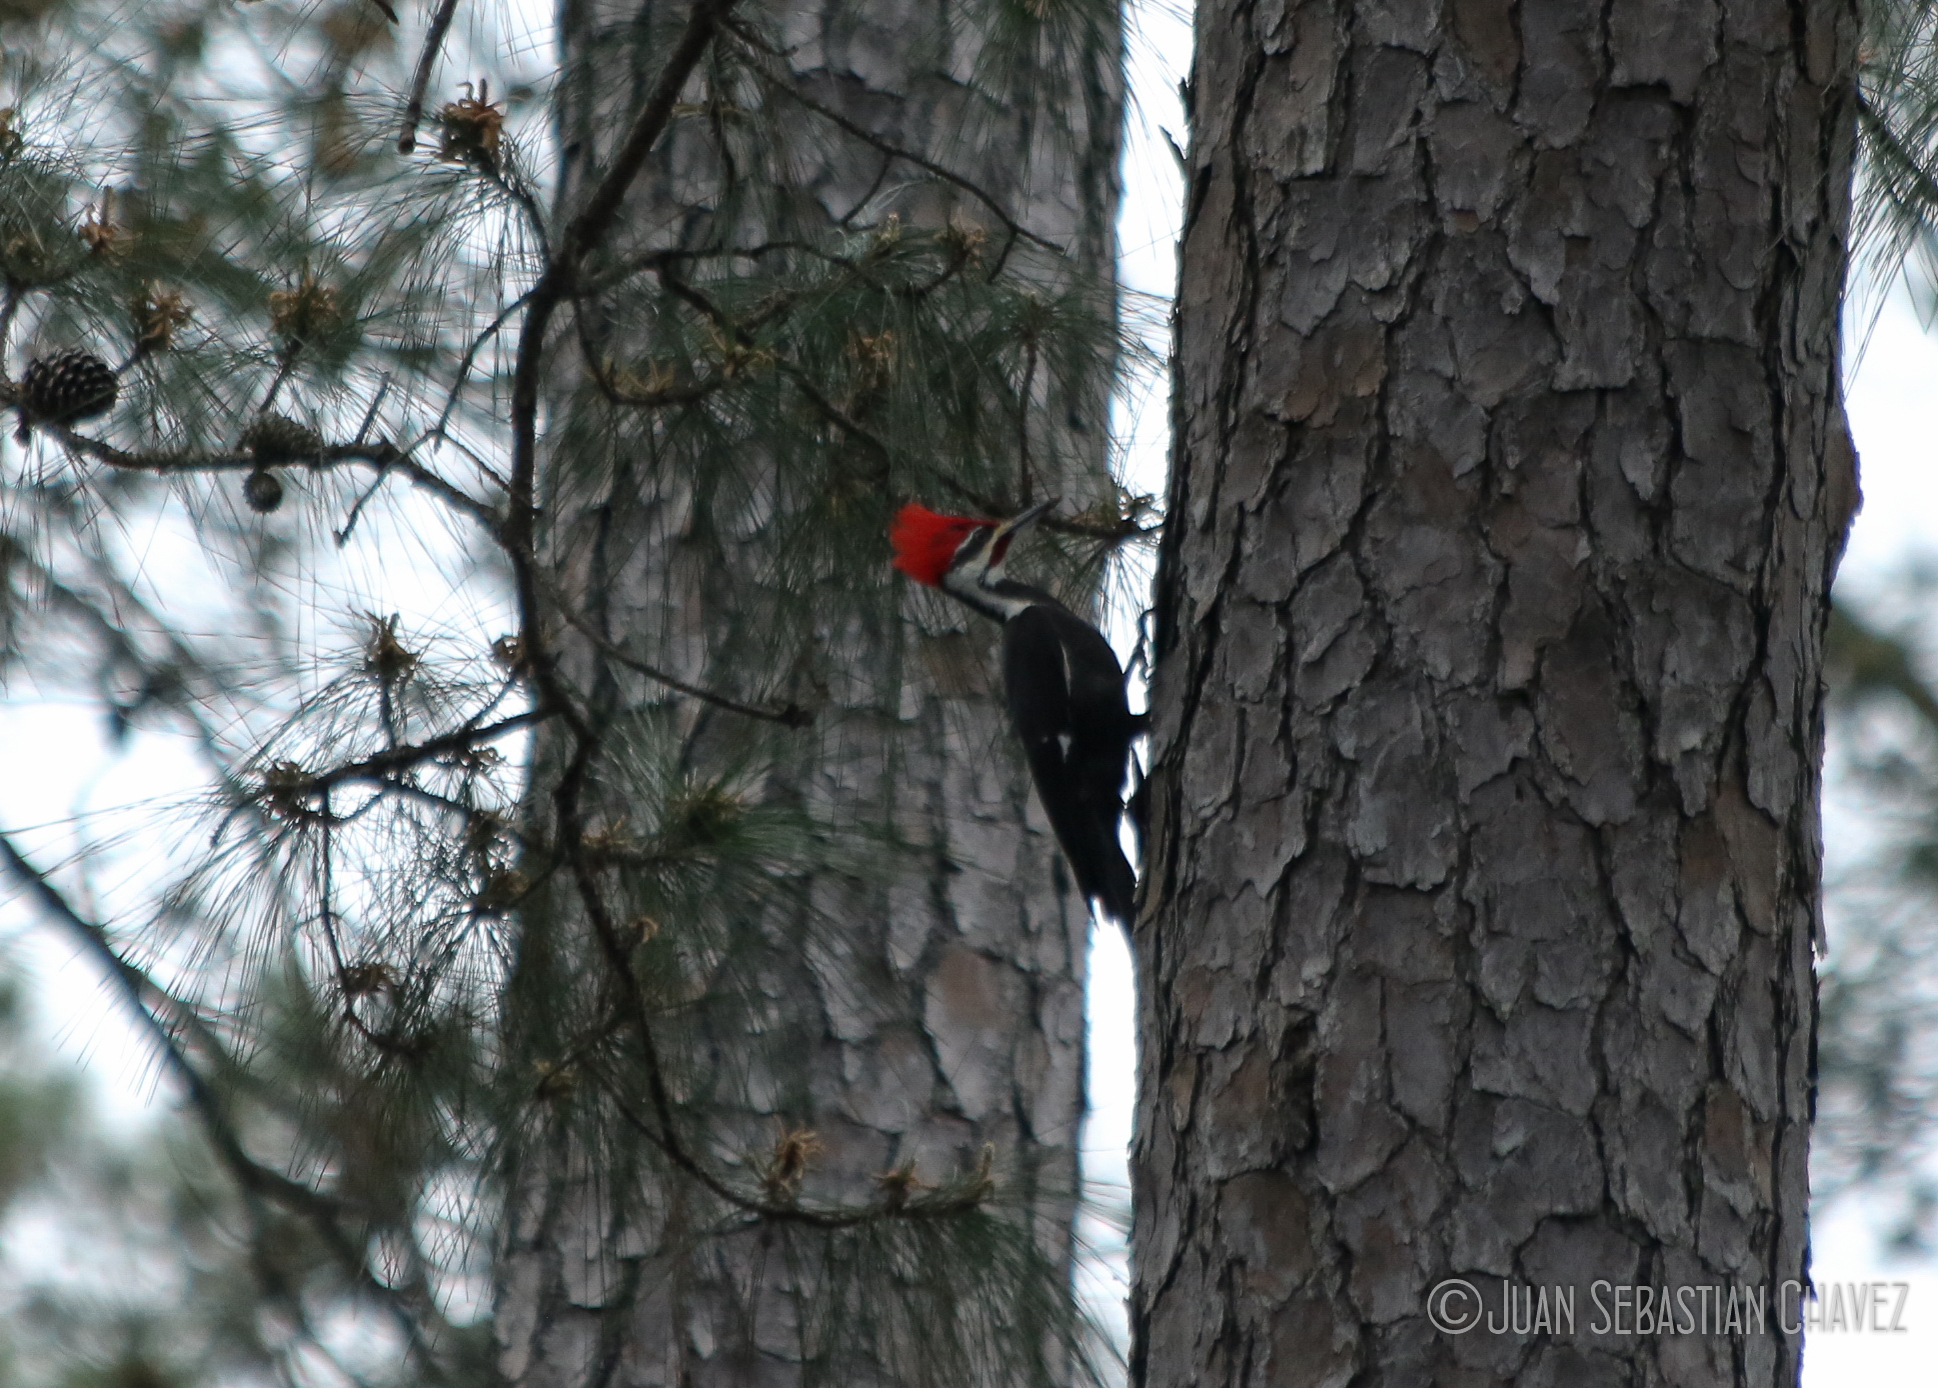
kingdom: Animalia
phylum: Chordata
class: Aves
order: Piciformes
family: Picidae
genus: Dryocopus
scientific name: Dryocopus pileatus
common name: Pileated woodpecker
